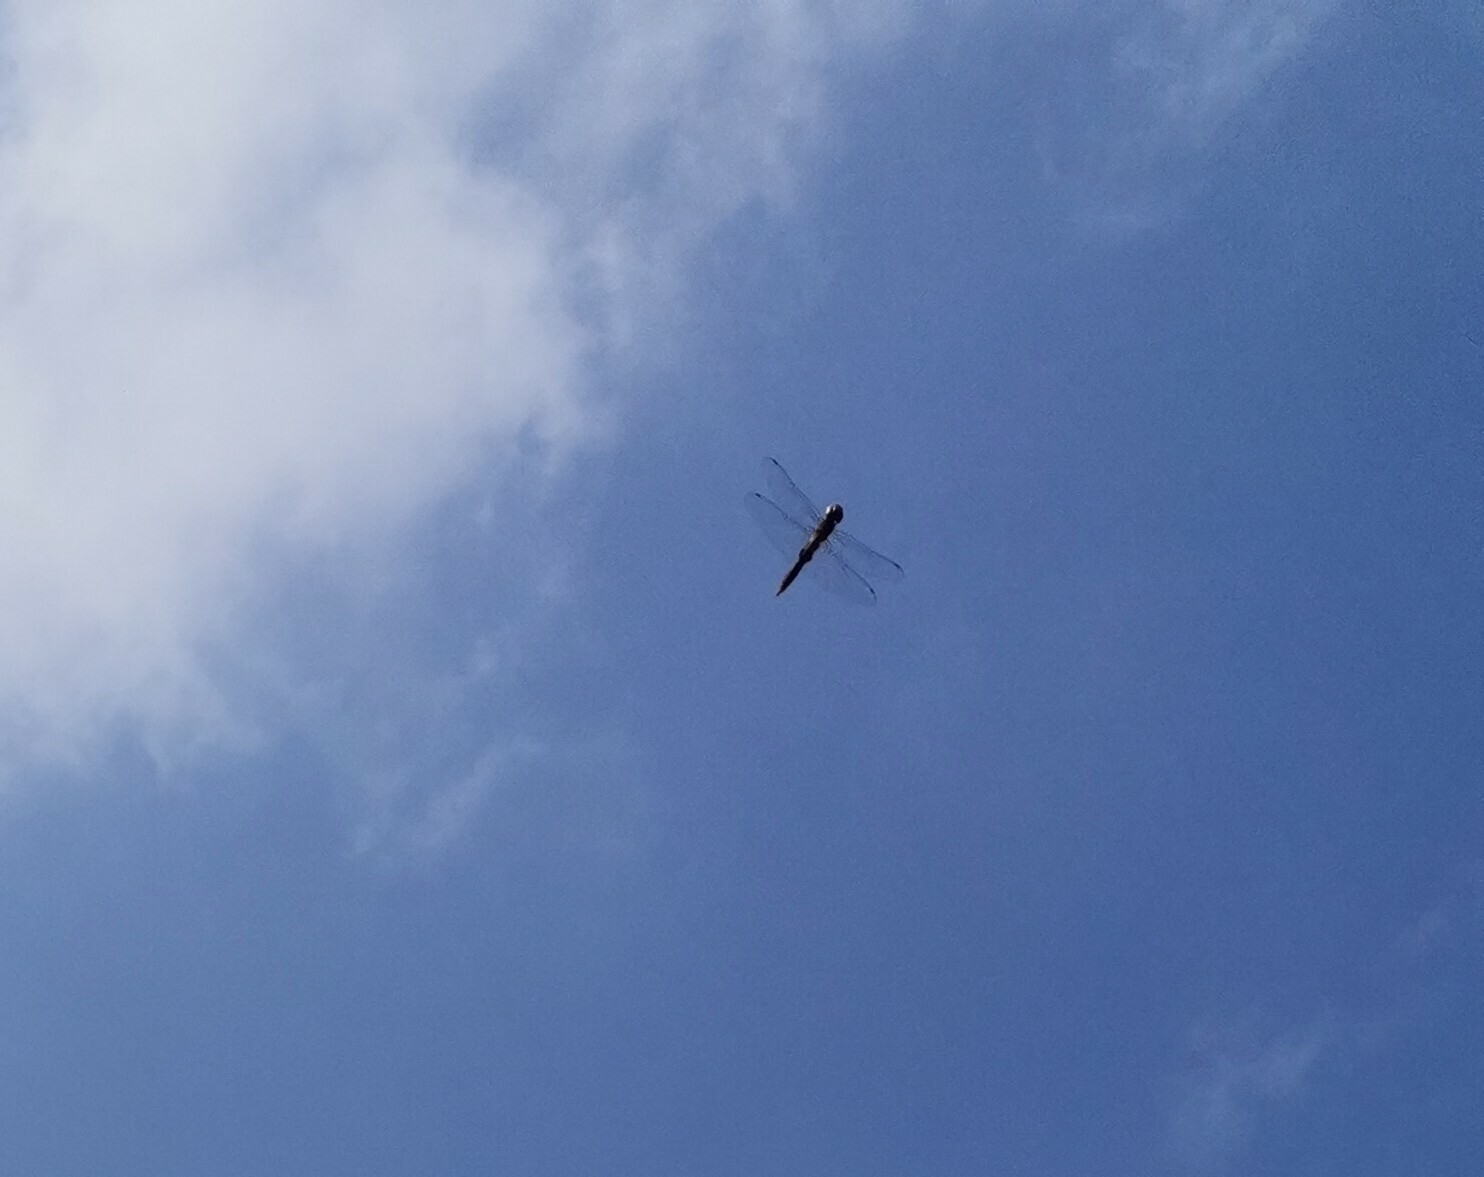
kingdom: Animalia
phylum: Arthropoda
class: Insecta
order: Odonata
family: Libellulidae
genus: Pantala
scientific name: Pantala hymenaea
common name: Spot-winged glider
